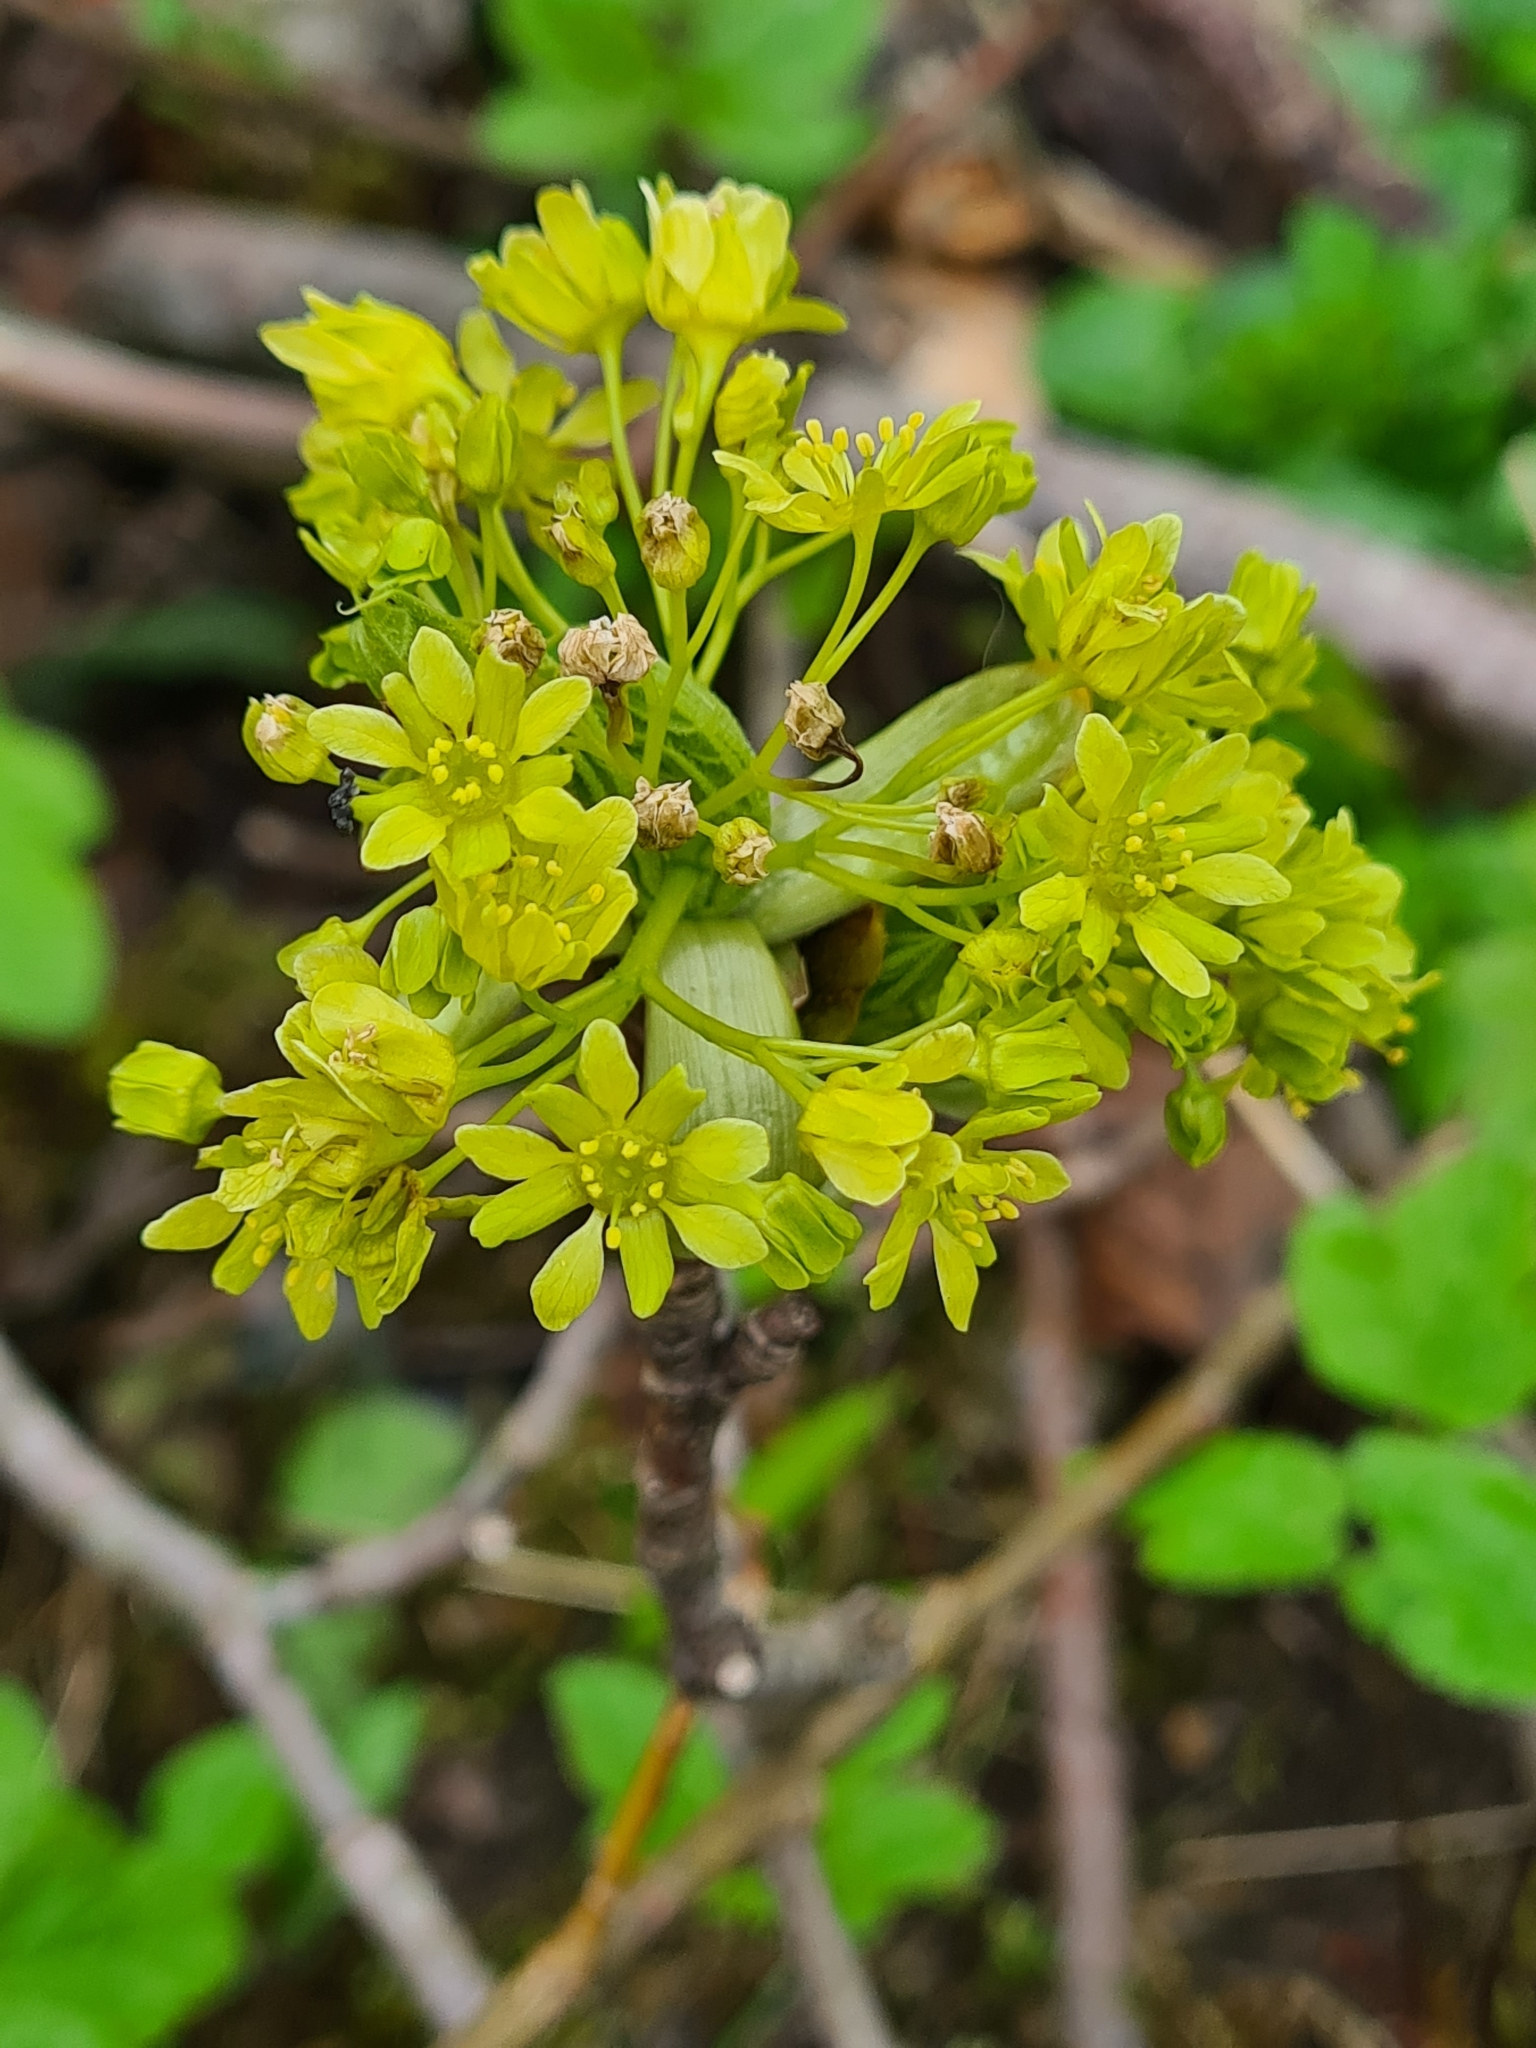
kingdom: Plantae
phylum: Tracheophyta
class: Magnoliopsida
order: Sapindales
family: Sapindaceae
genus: Acer
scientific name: Acer platanoides
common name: Norway maple
